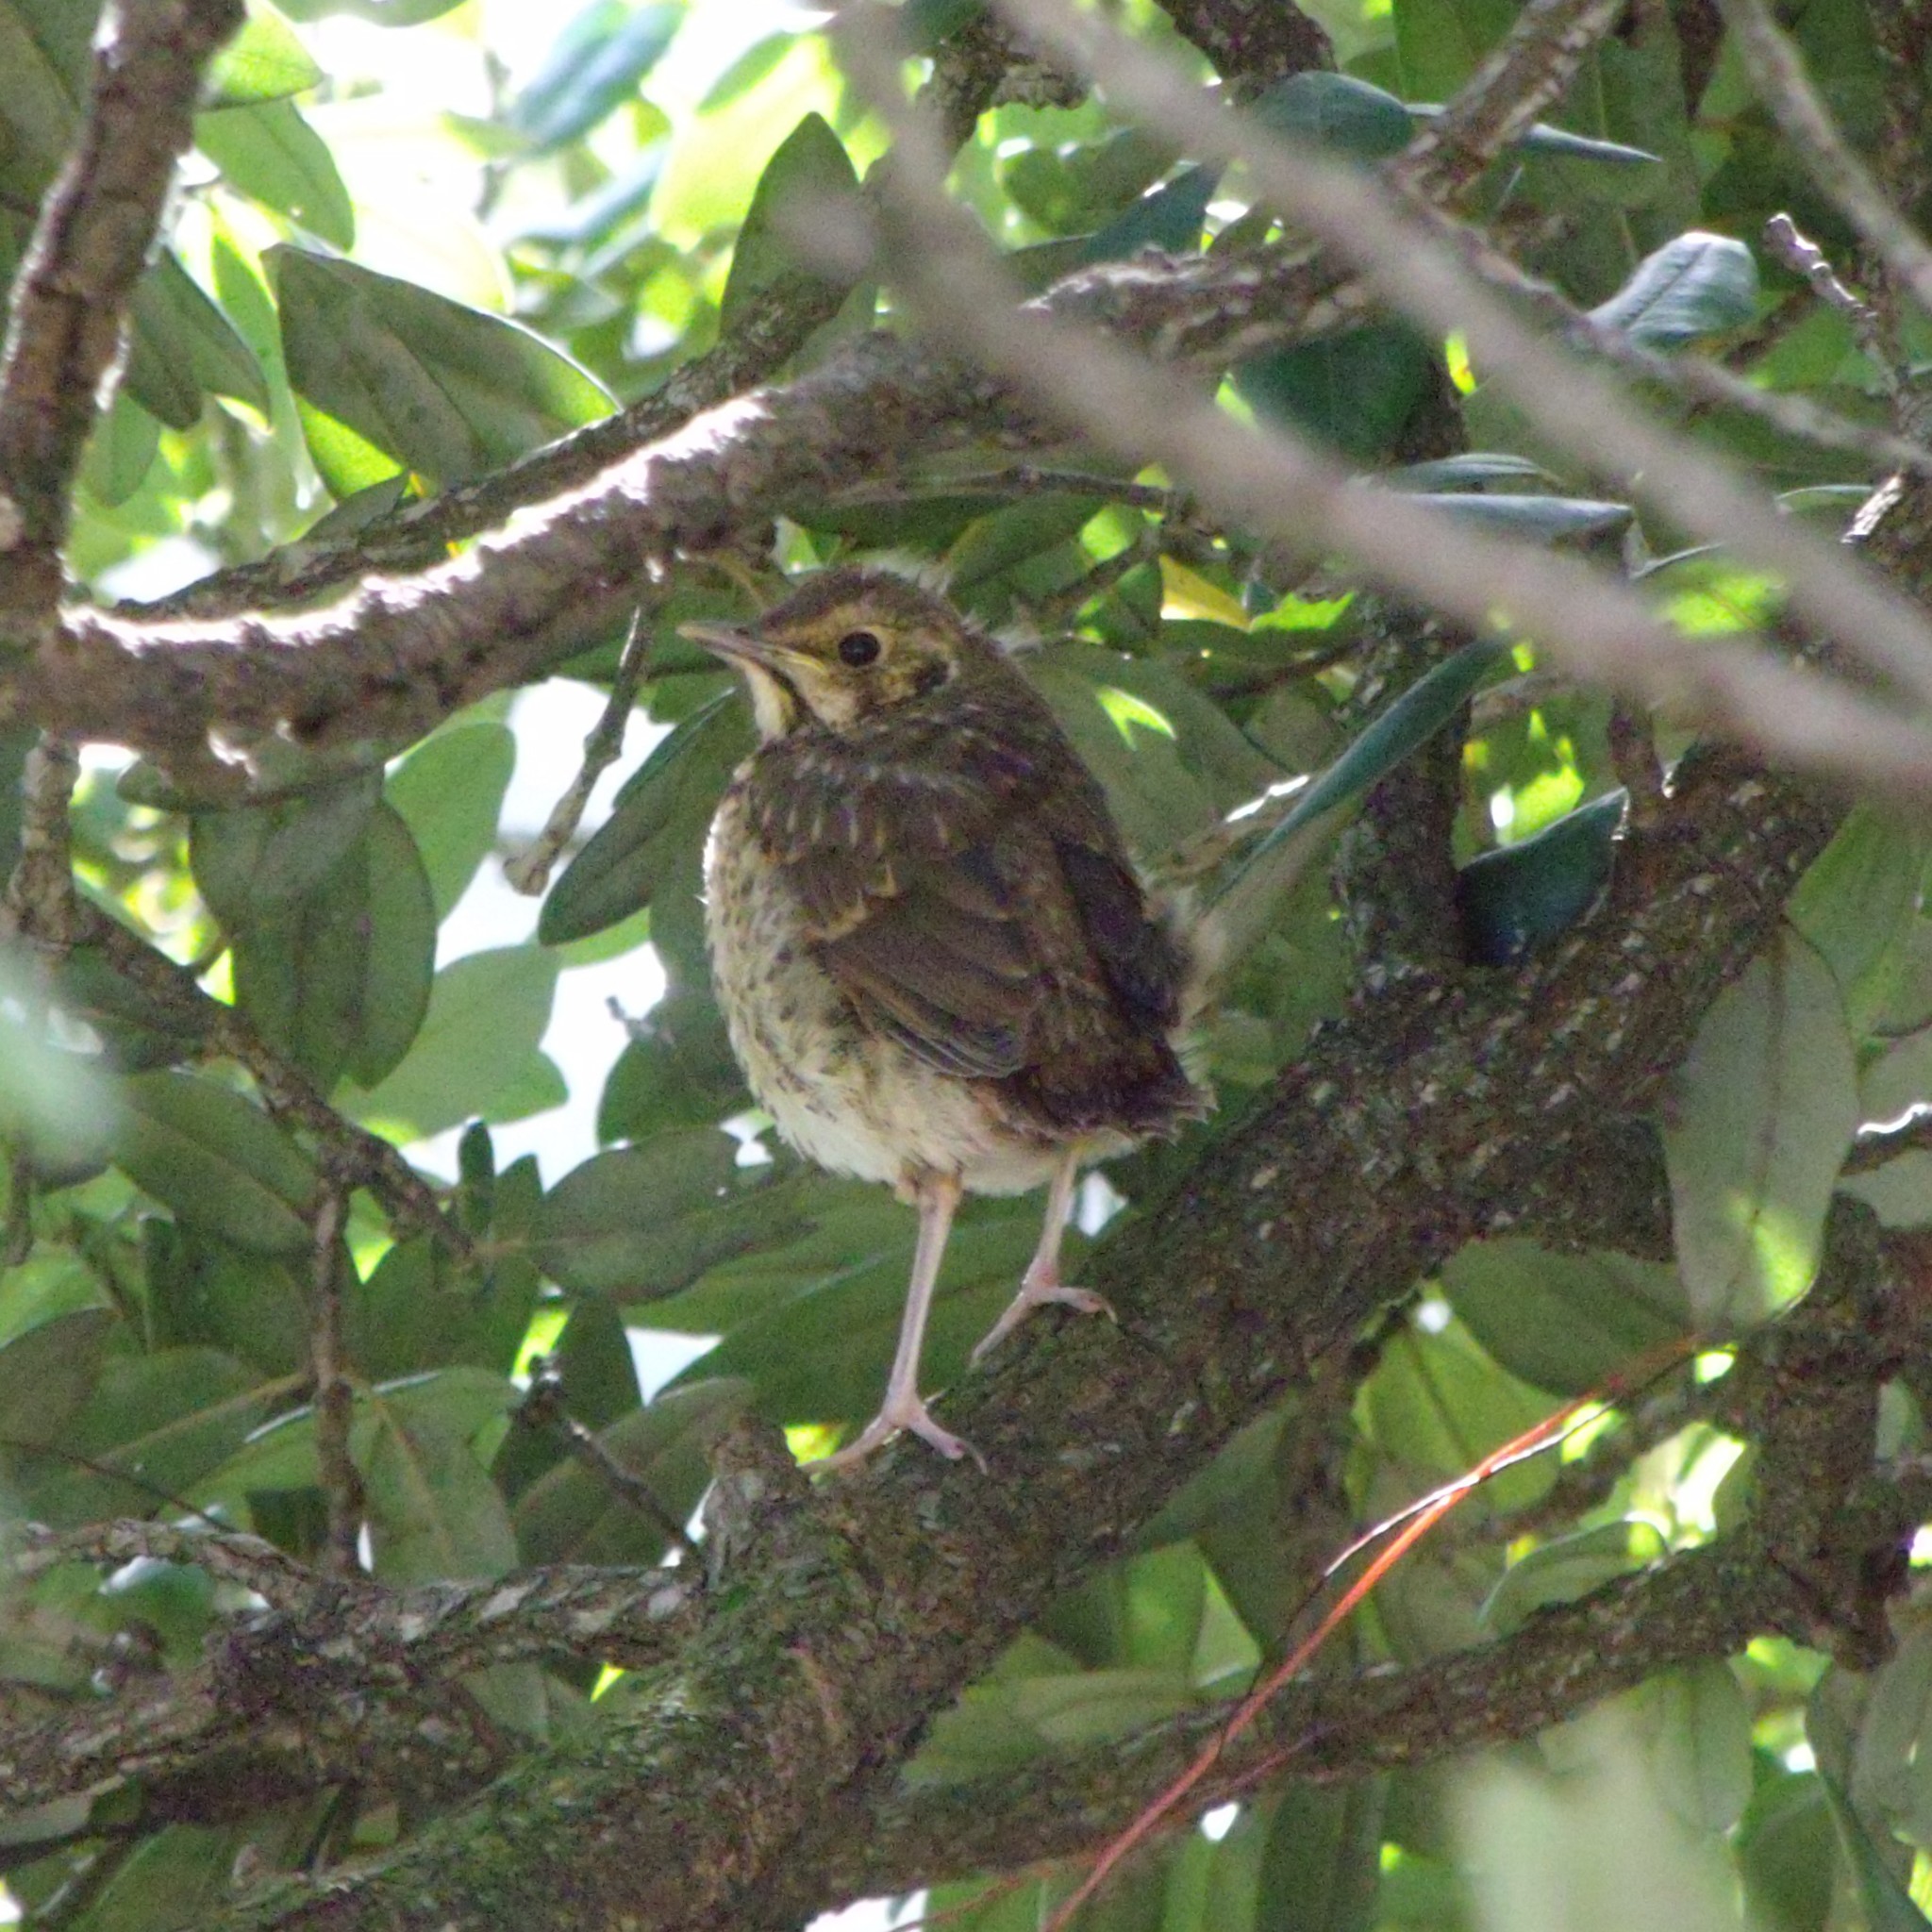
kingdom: Animalia
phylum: Chordata
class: Aves
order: Passeriformes
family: Turdidae
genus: Turdus
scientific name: Turdus philomelos
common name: Song thrush
